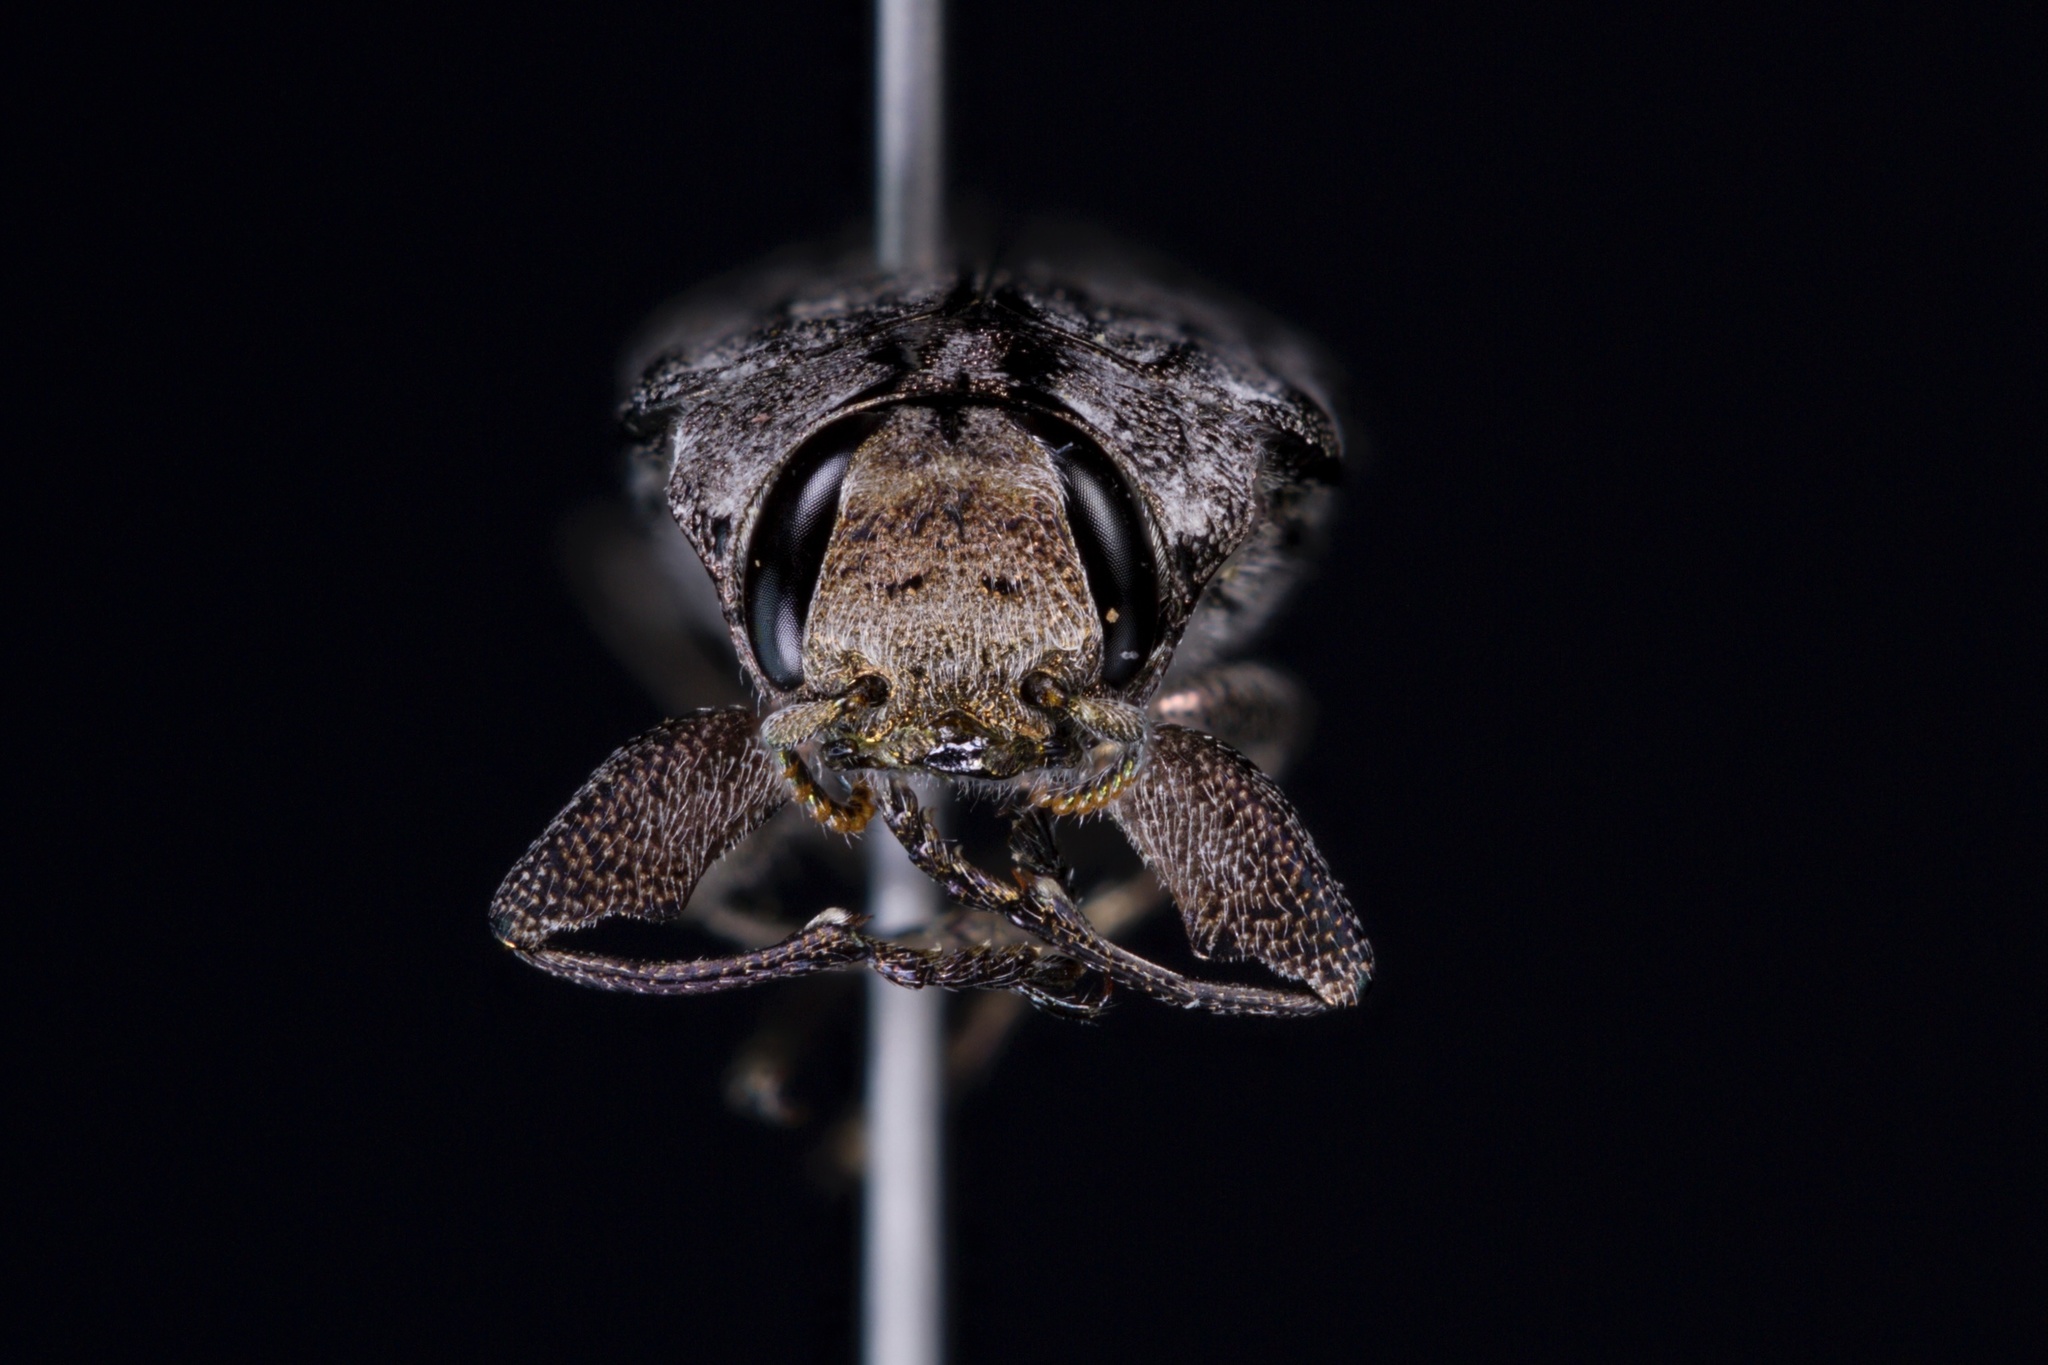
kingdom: Animalia
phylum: Arthropoda
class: Insecta
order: Coleoptera
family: Buprestidae
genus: Chrysobothris
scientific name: Chrysobothris dentipes
